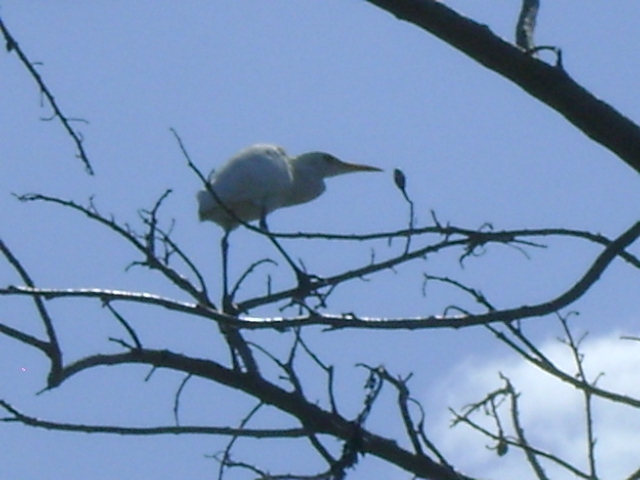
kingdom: Animalia
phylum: Chordata
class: Aves
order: Pelecaniformes
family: Ardeidae
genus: Bubulcus
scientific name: Bubulcus ibis
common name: Cattle egret
